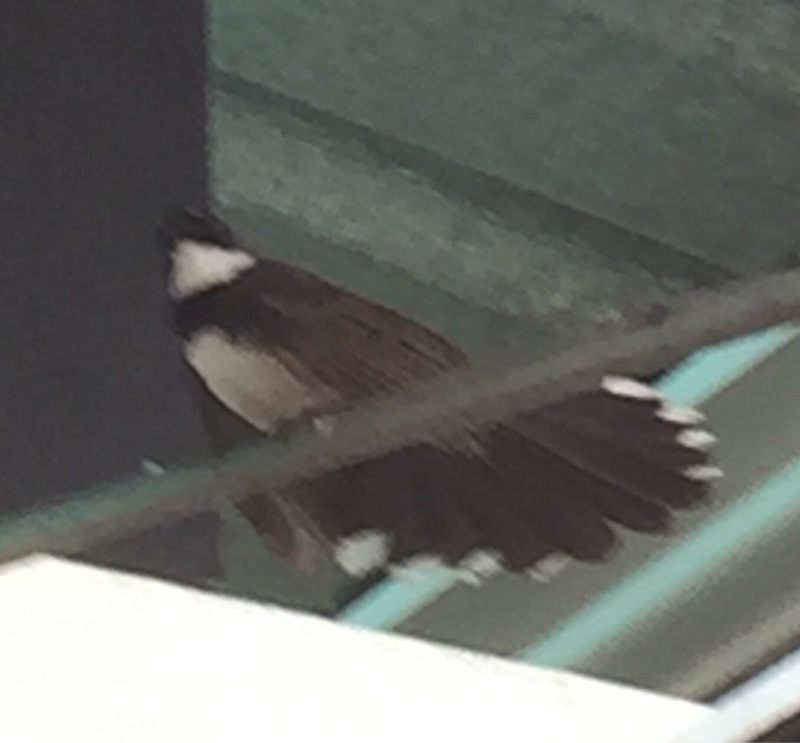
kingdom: Animalia
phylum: Chordata
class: Aves
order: Passeriformes
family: Rhipiduridae
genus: Rhipidura
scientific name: Rhipidura javanica
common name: Pied fantail
